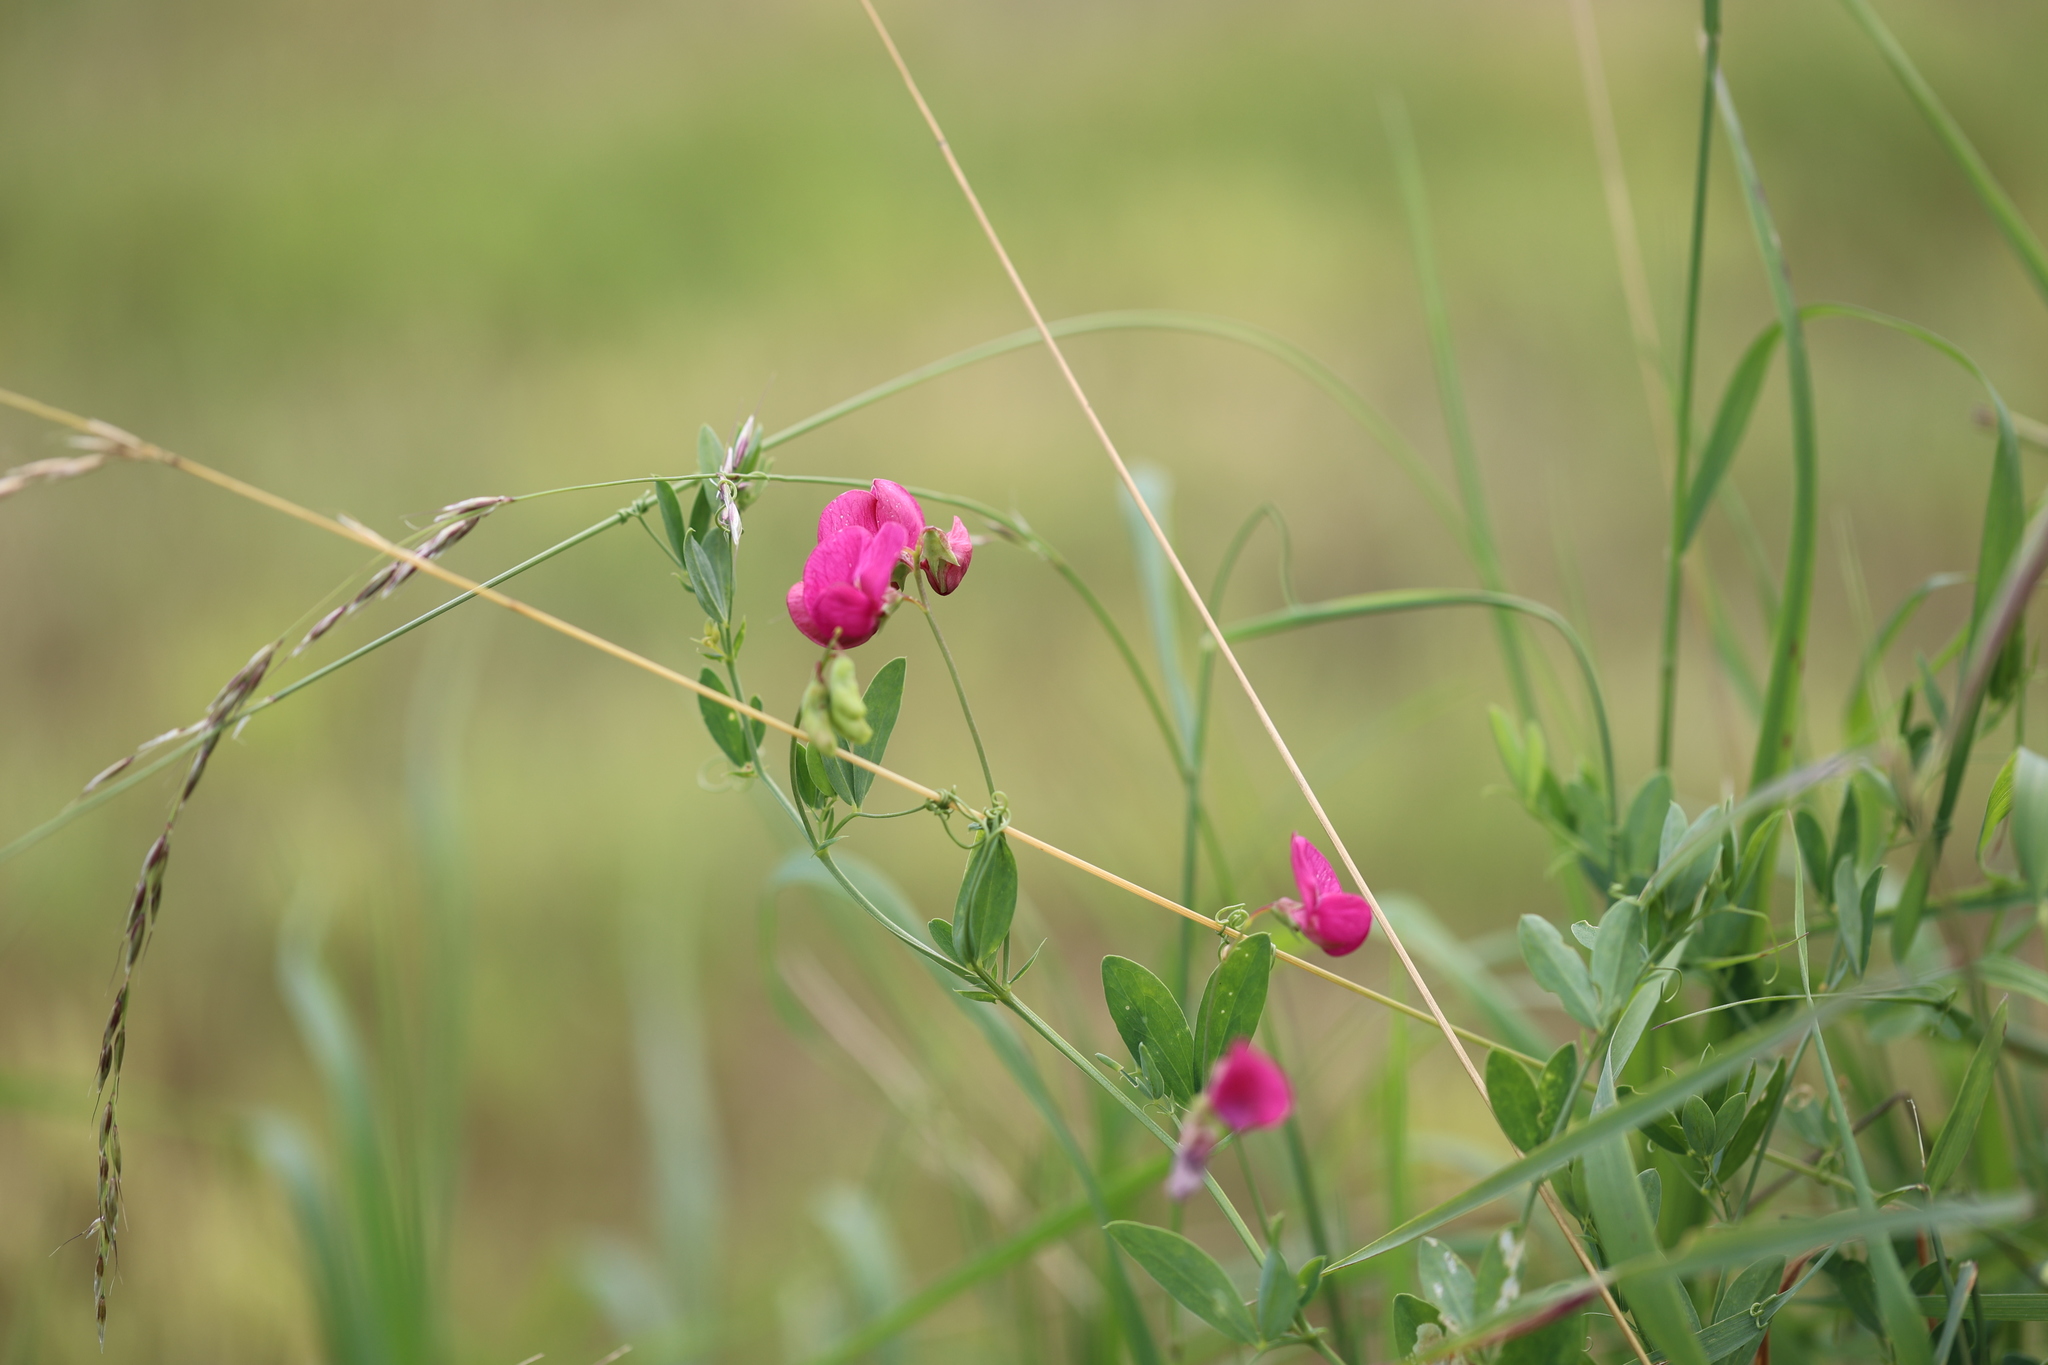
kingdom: Plantae
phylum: Tracheophyta
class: Magnoliopsida
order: Fabales
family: Fabaceae
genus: Lathyrus
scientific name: Lathyrus tuberosus
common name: Tuberous pea
